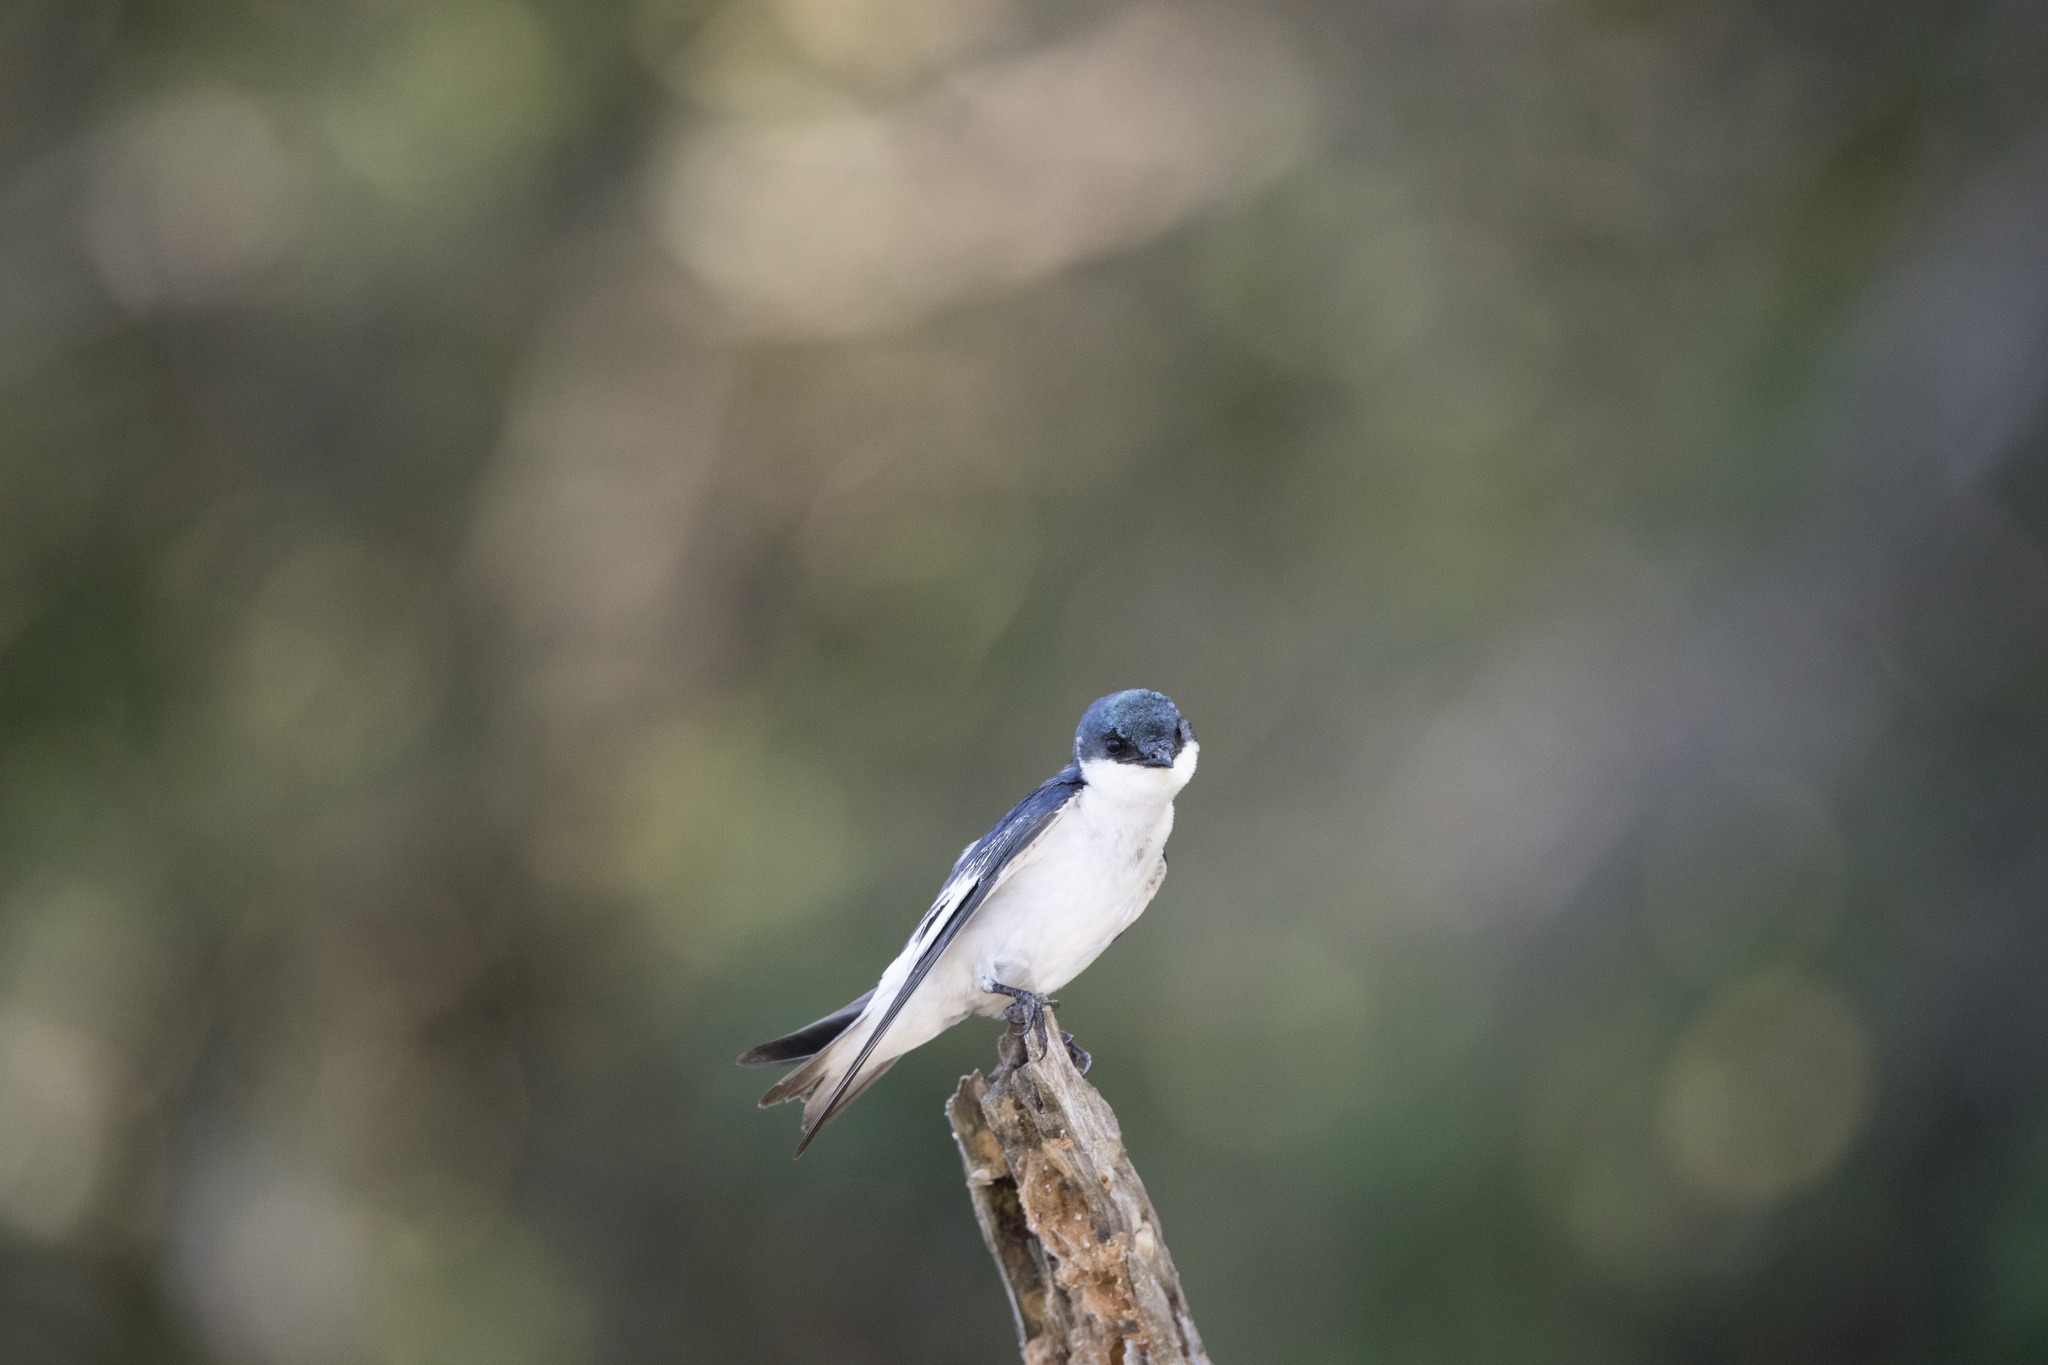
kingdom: Animalia
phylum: Chordata
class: Aves
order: Passeriformes
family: Hirundinidae
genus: Tachycineta
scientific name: Tachycineta albiventer
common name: White-winged swallow
